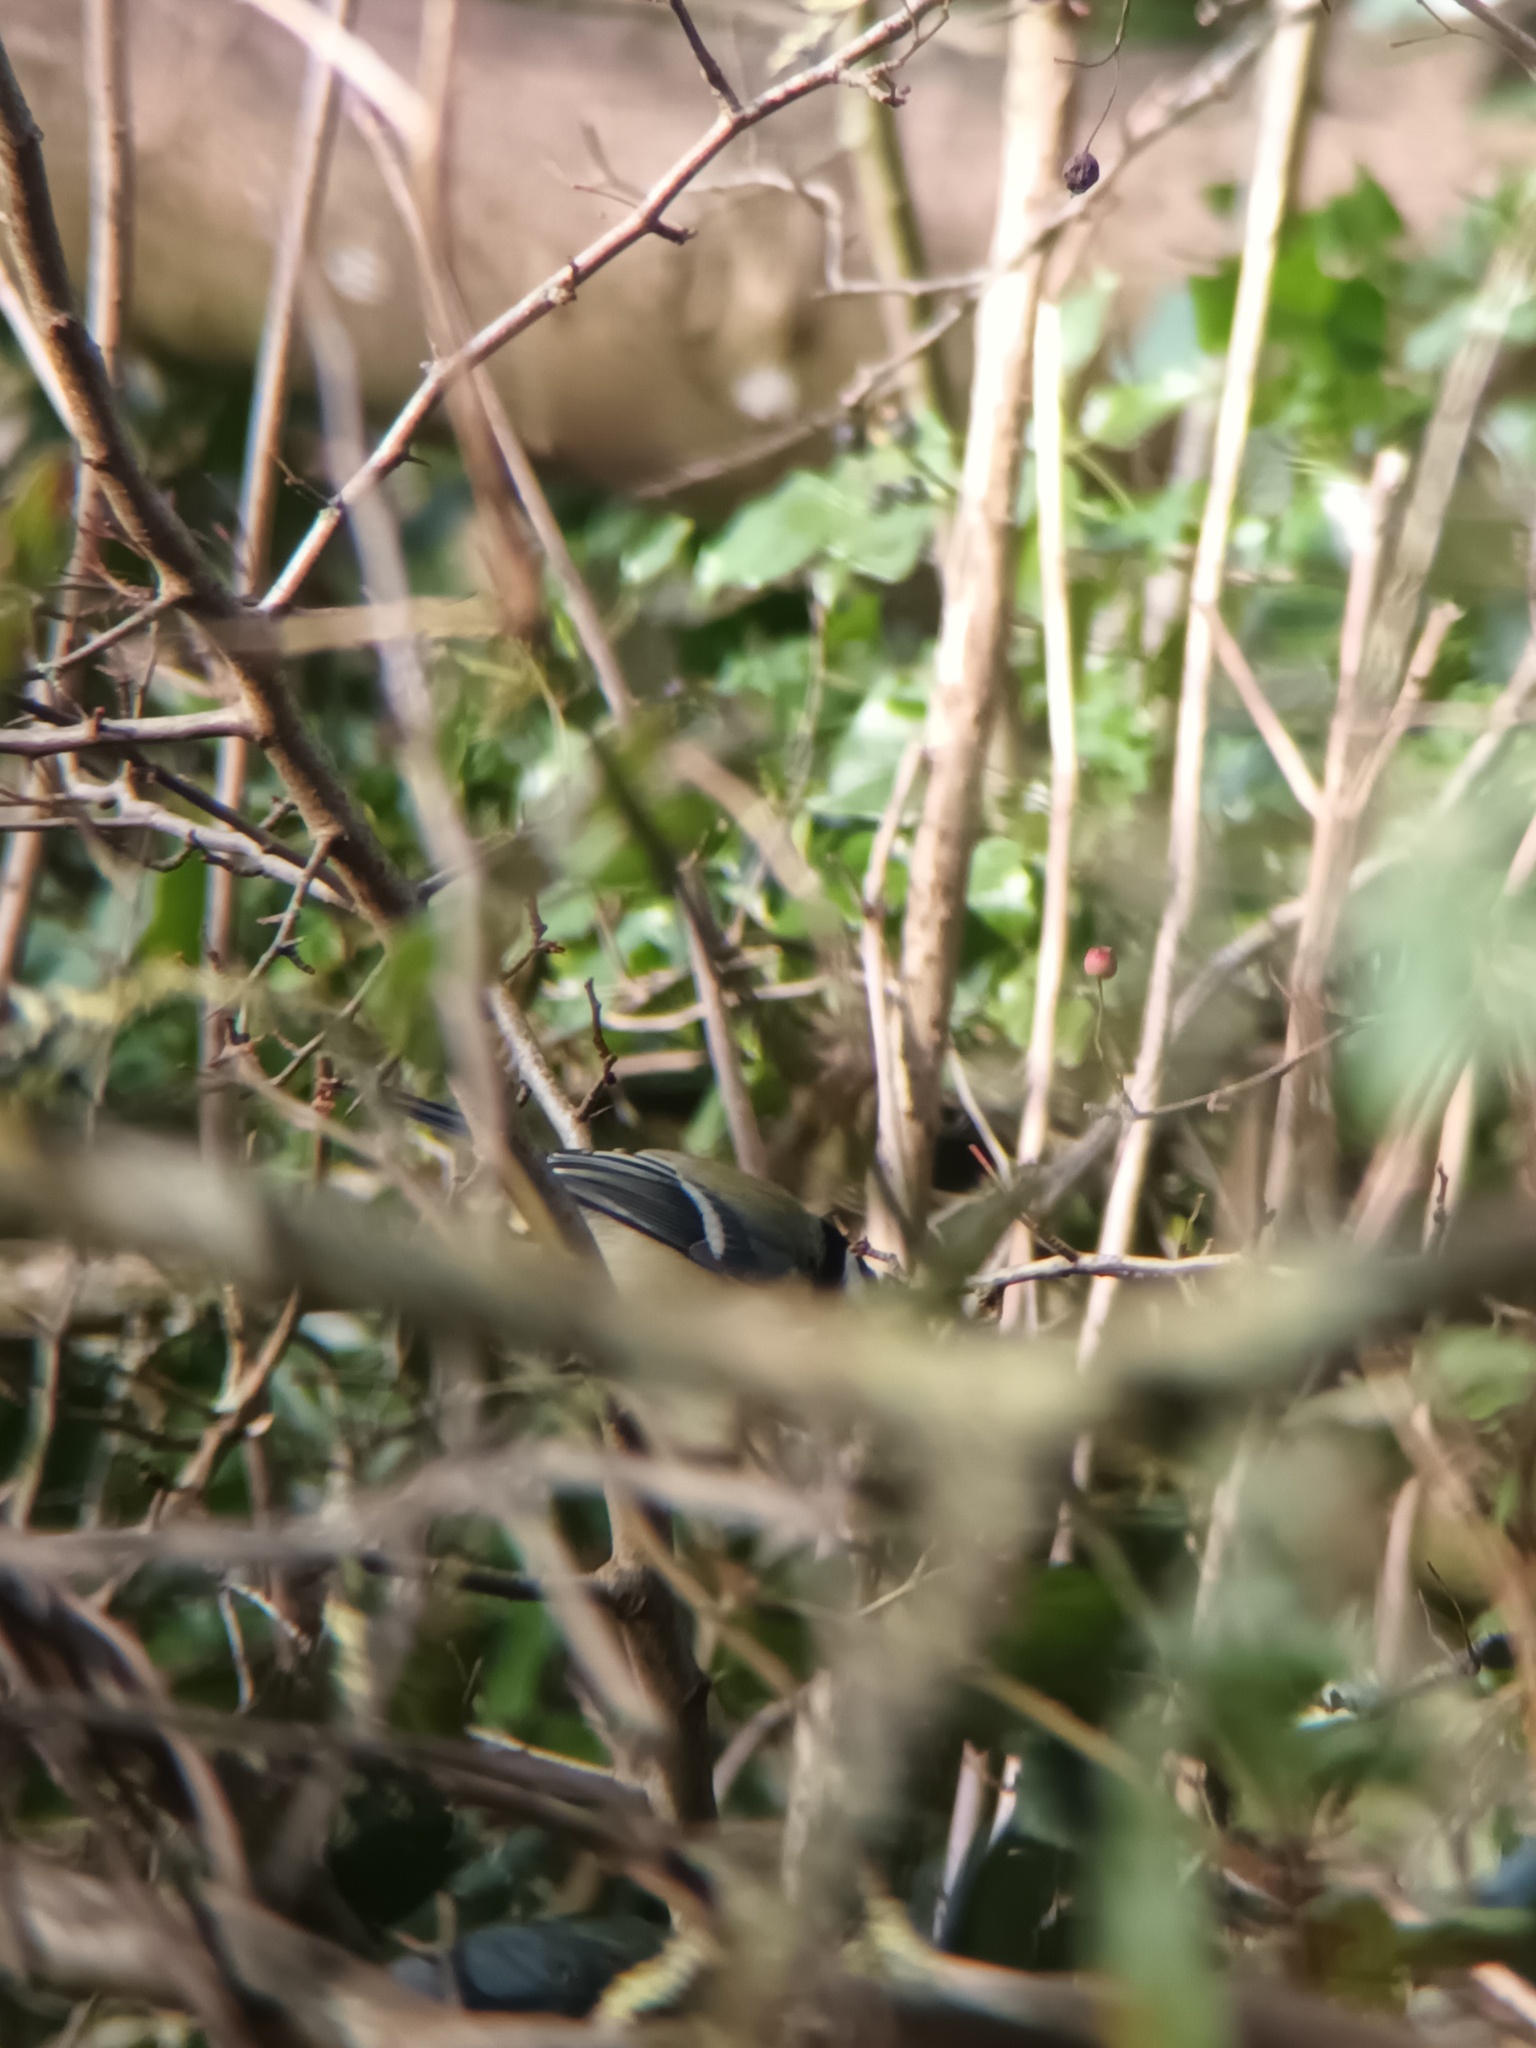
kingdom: Animalia
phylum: Chordata
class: Aves
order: Passeriformes
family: Paridae
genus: Parus
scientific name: Parus major
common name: Great tit
